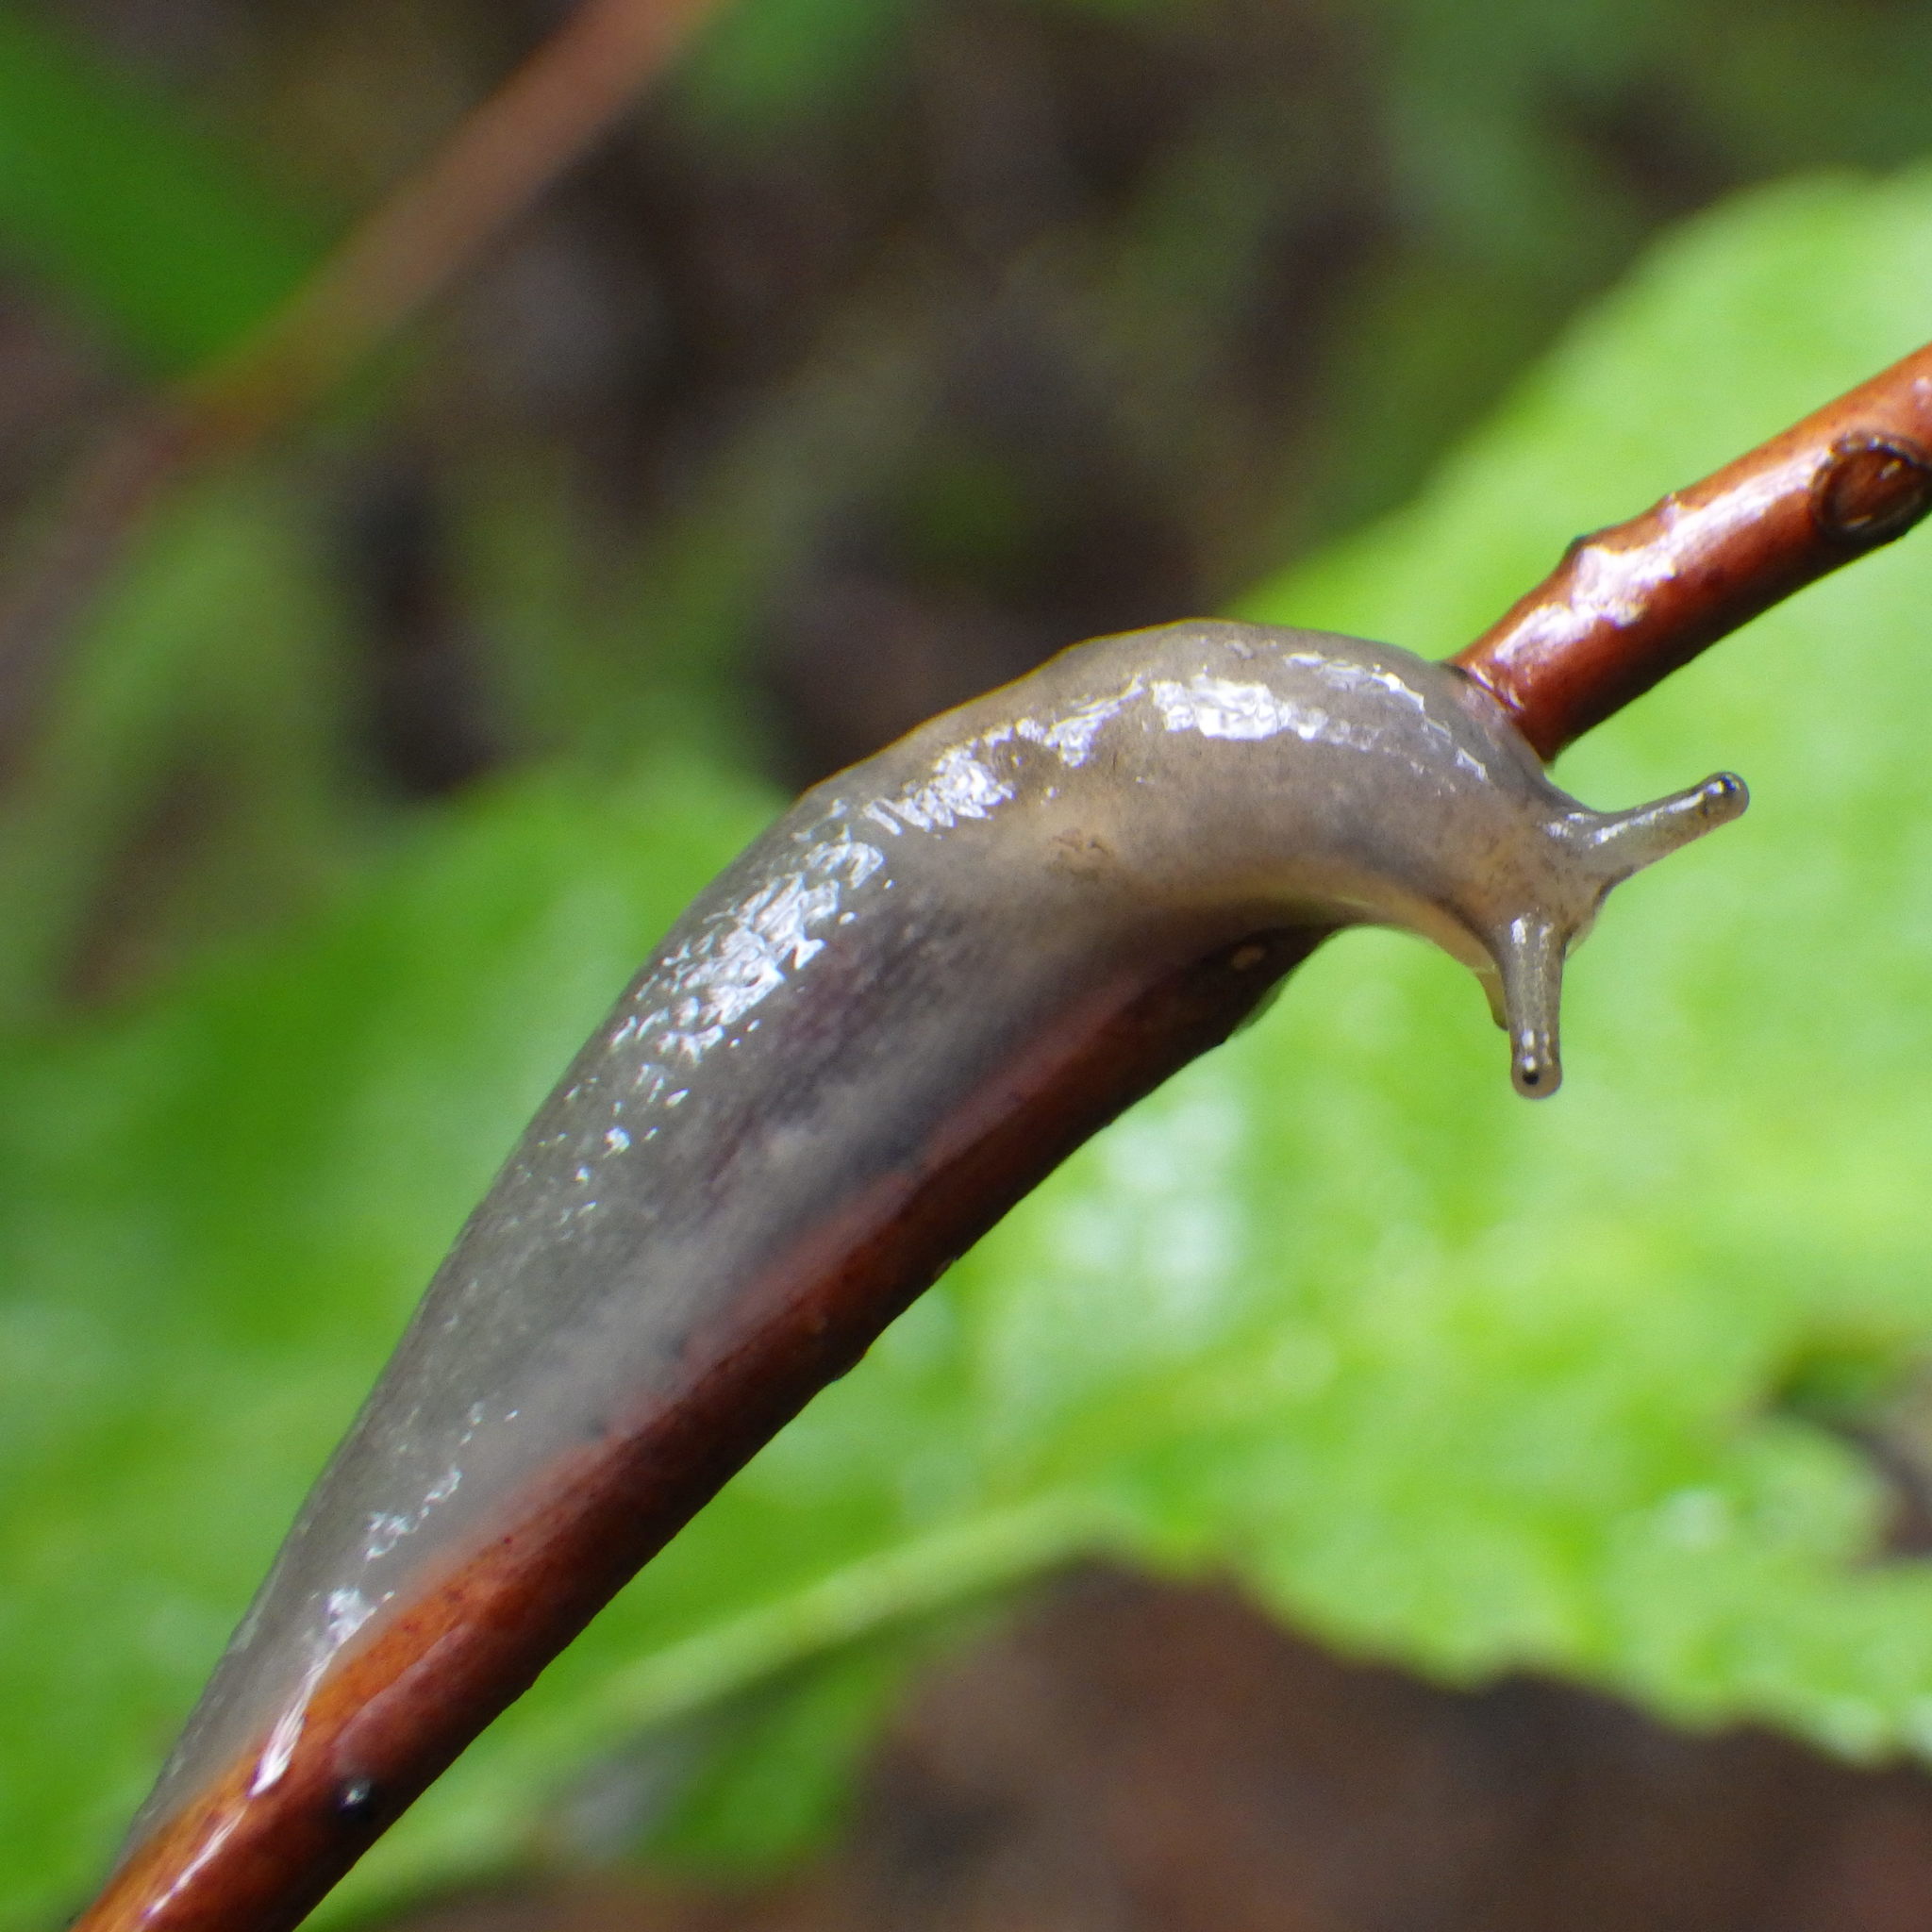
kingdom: Animalia
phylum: Mollusca
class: Gastropoda
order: Stylommatophora
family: Limacidae
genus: Lehmannia
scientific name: Lehmannia marginata
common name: Tree slug
